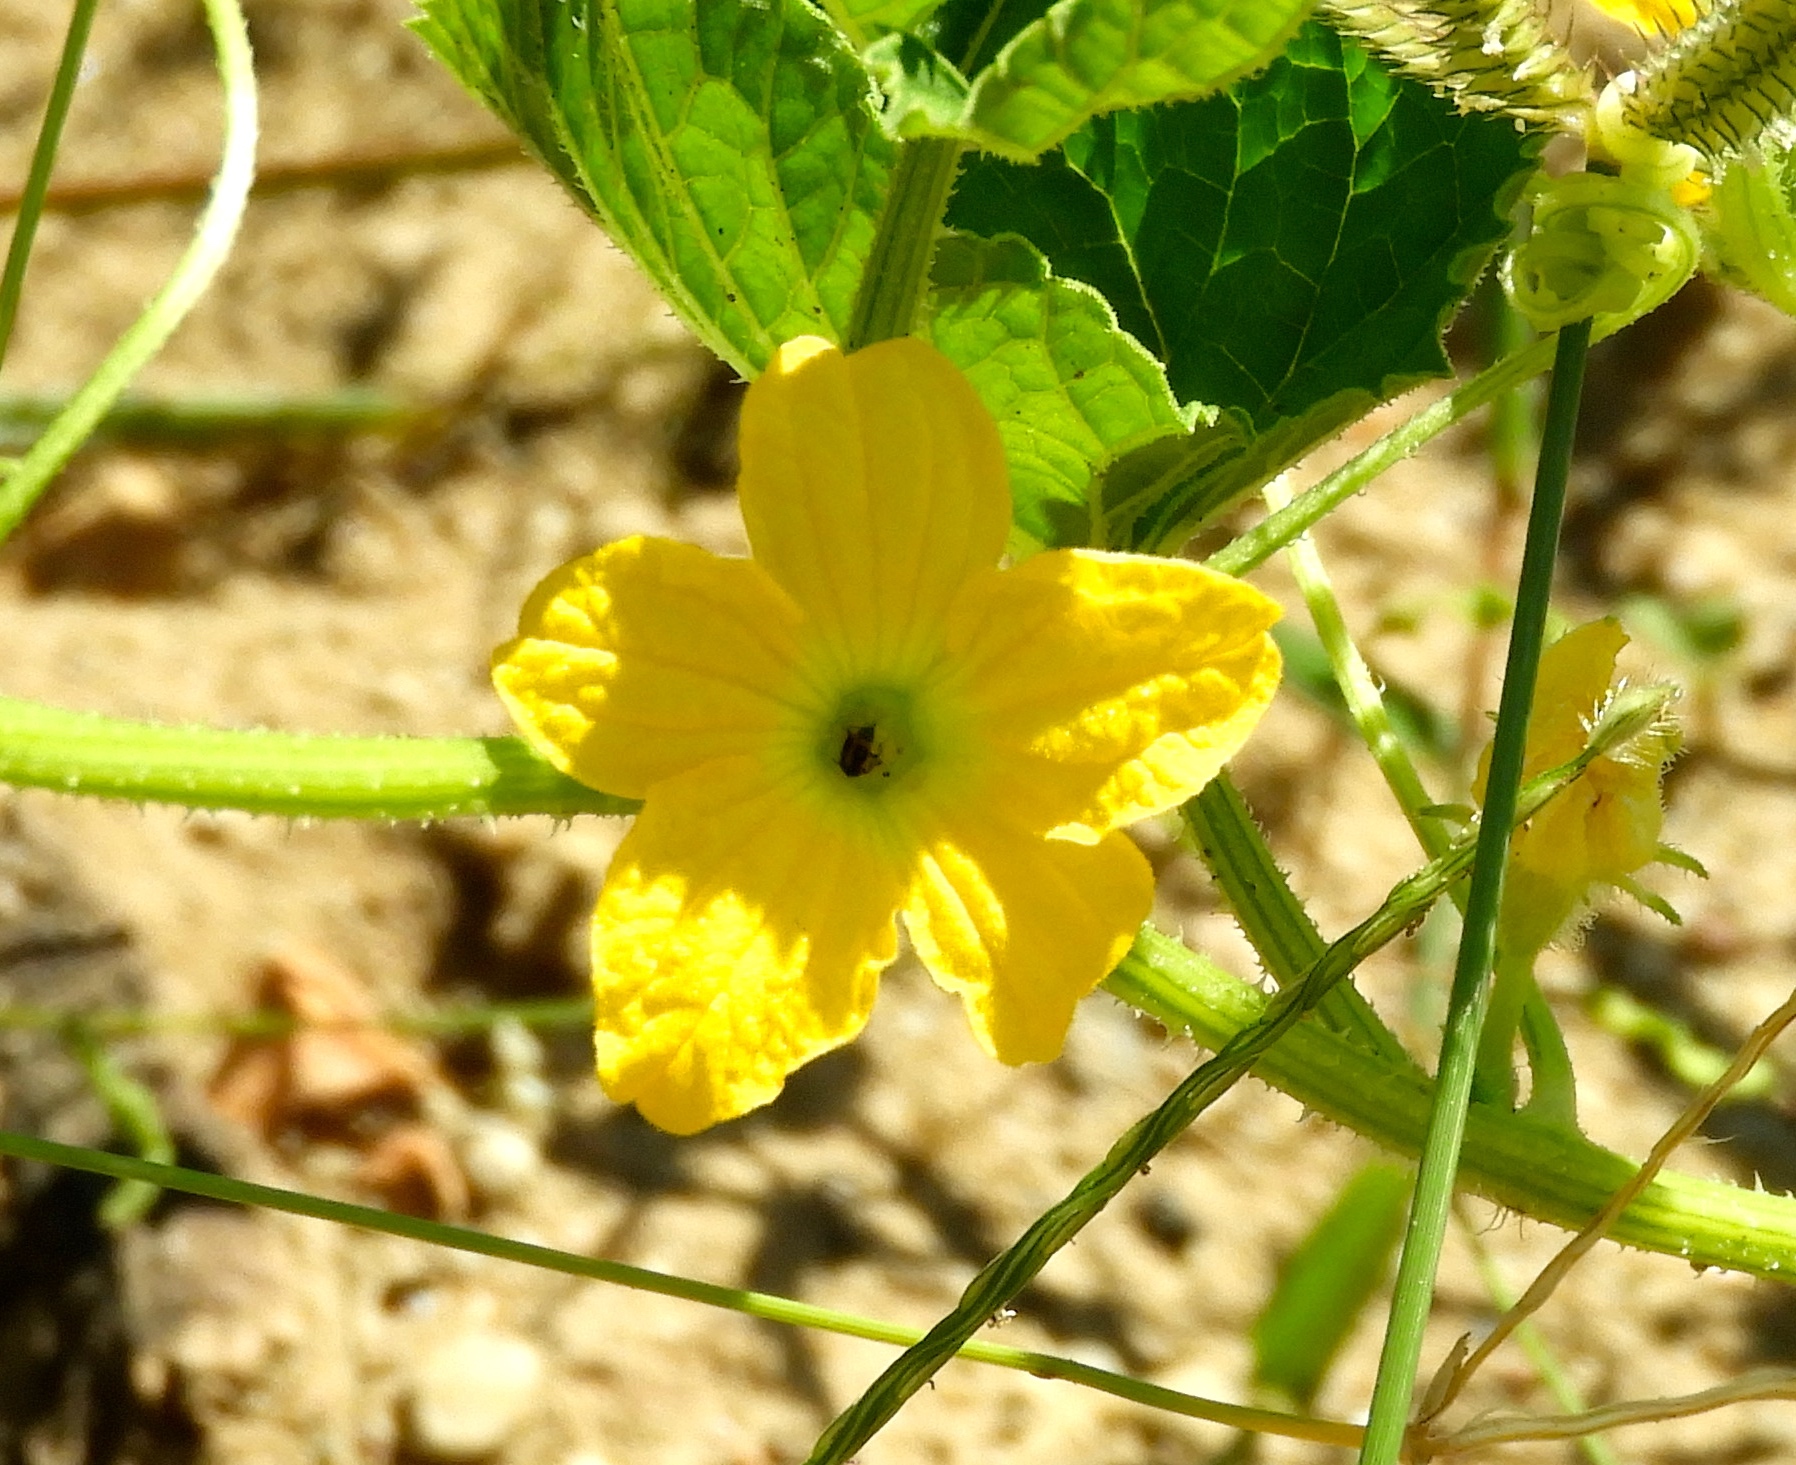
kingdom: Plantae
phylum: Tracheophyta
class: Magnoliopsida
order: Cucurbitales
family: Cucurbitaceae
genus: Cucumis
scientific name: Cucumis melo
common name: Melon
